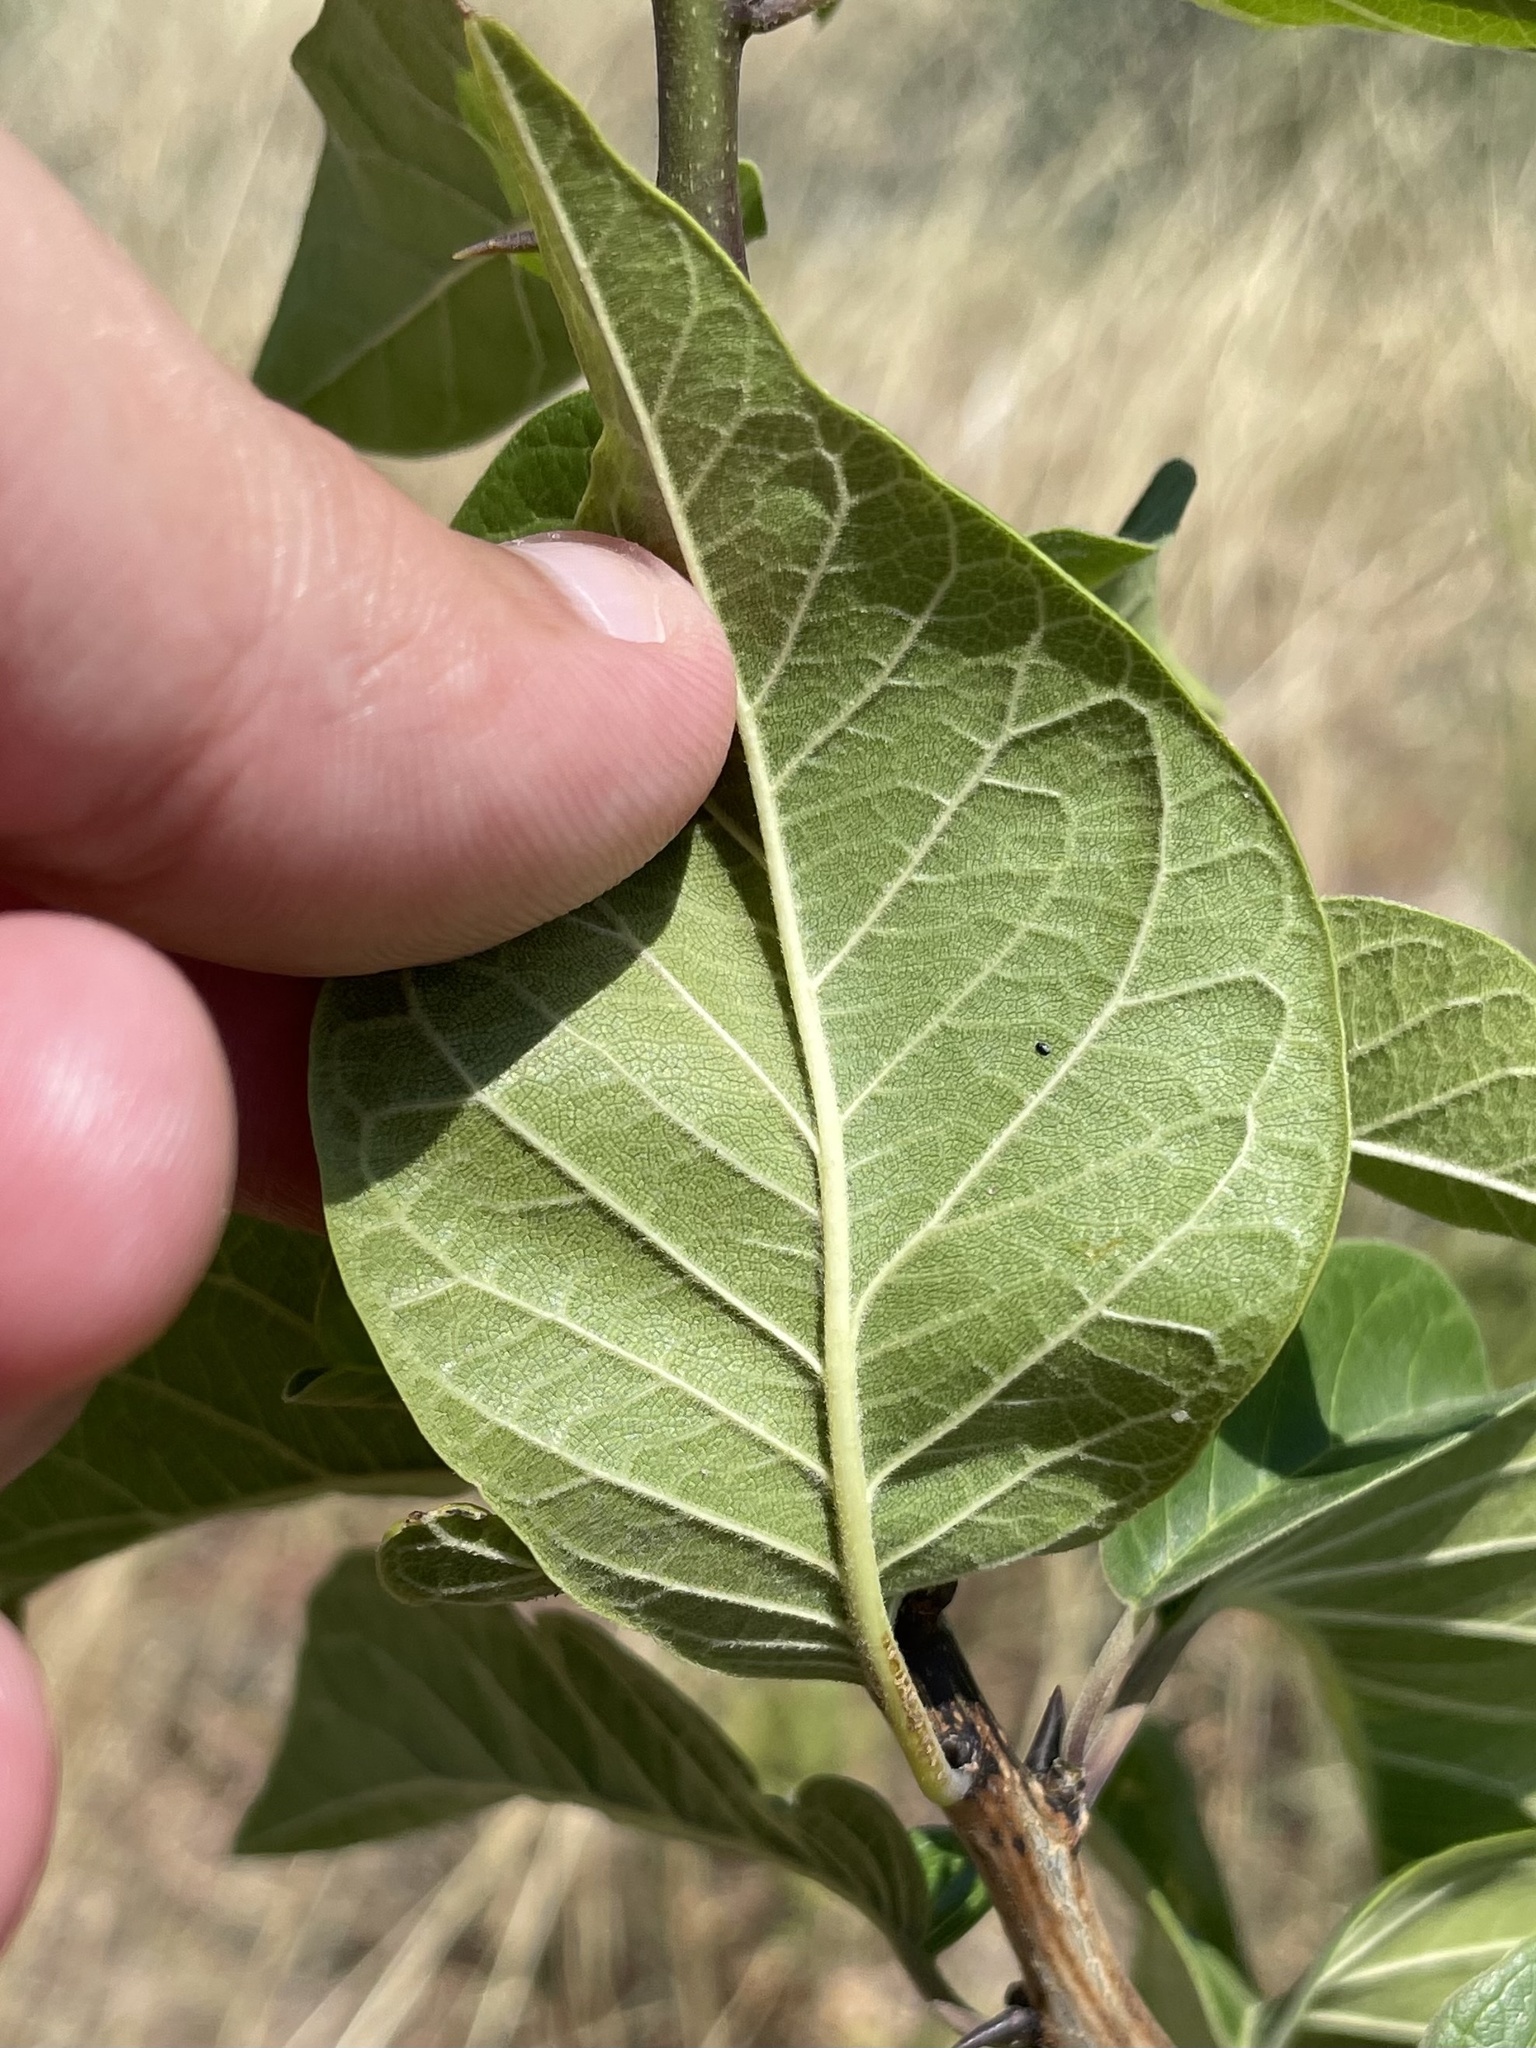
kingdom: Plantae
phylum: Tracheophyta
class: Magnoliopsida
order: Rosales
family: Moraceae
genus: Maclura
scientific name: Maclura pomifera
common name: Osage-orange
